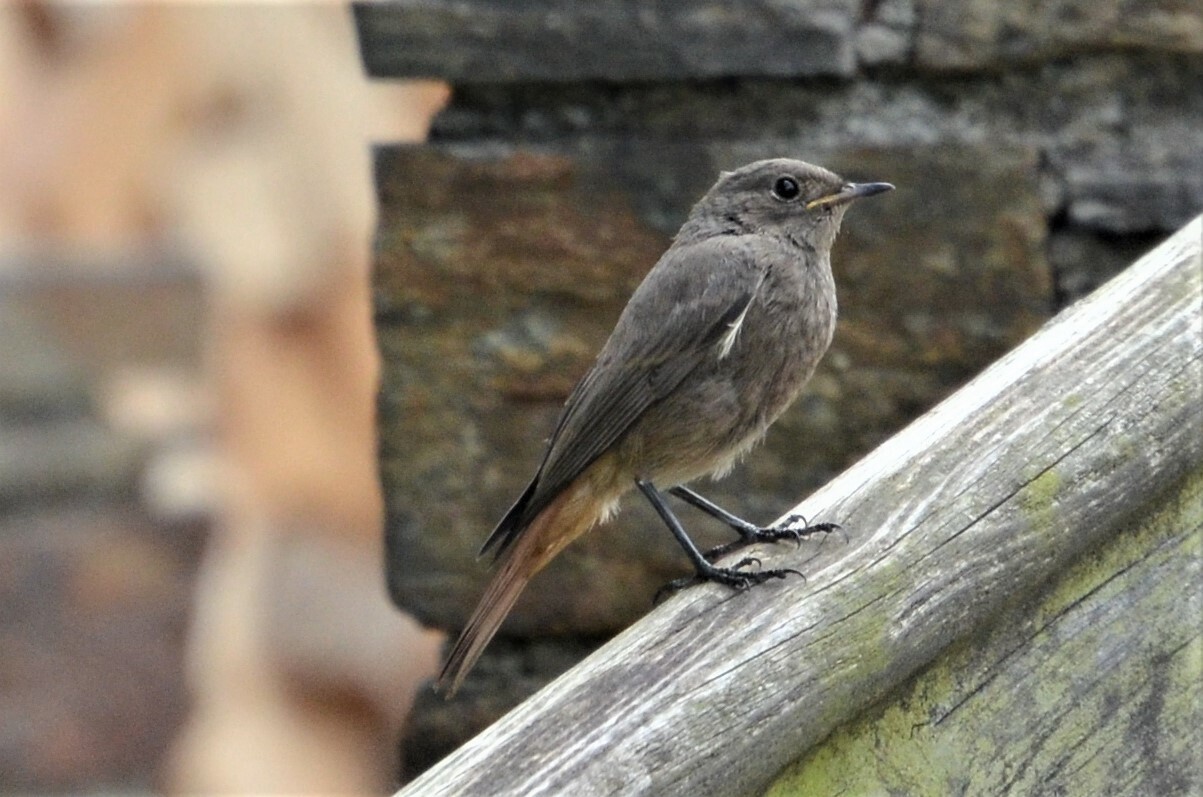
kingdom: Animalia
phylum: Chordata
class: Aves
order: Passeriformes
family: Muscicapidae
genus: Phoenicurus
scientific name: Phoenicurus ochruros
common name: Black redstart
